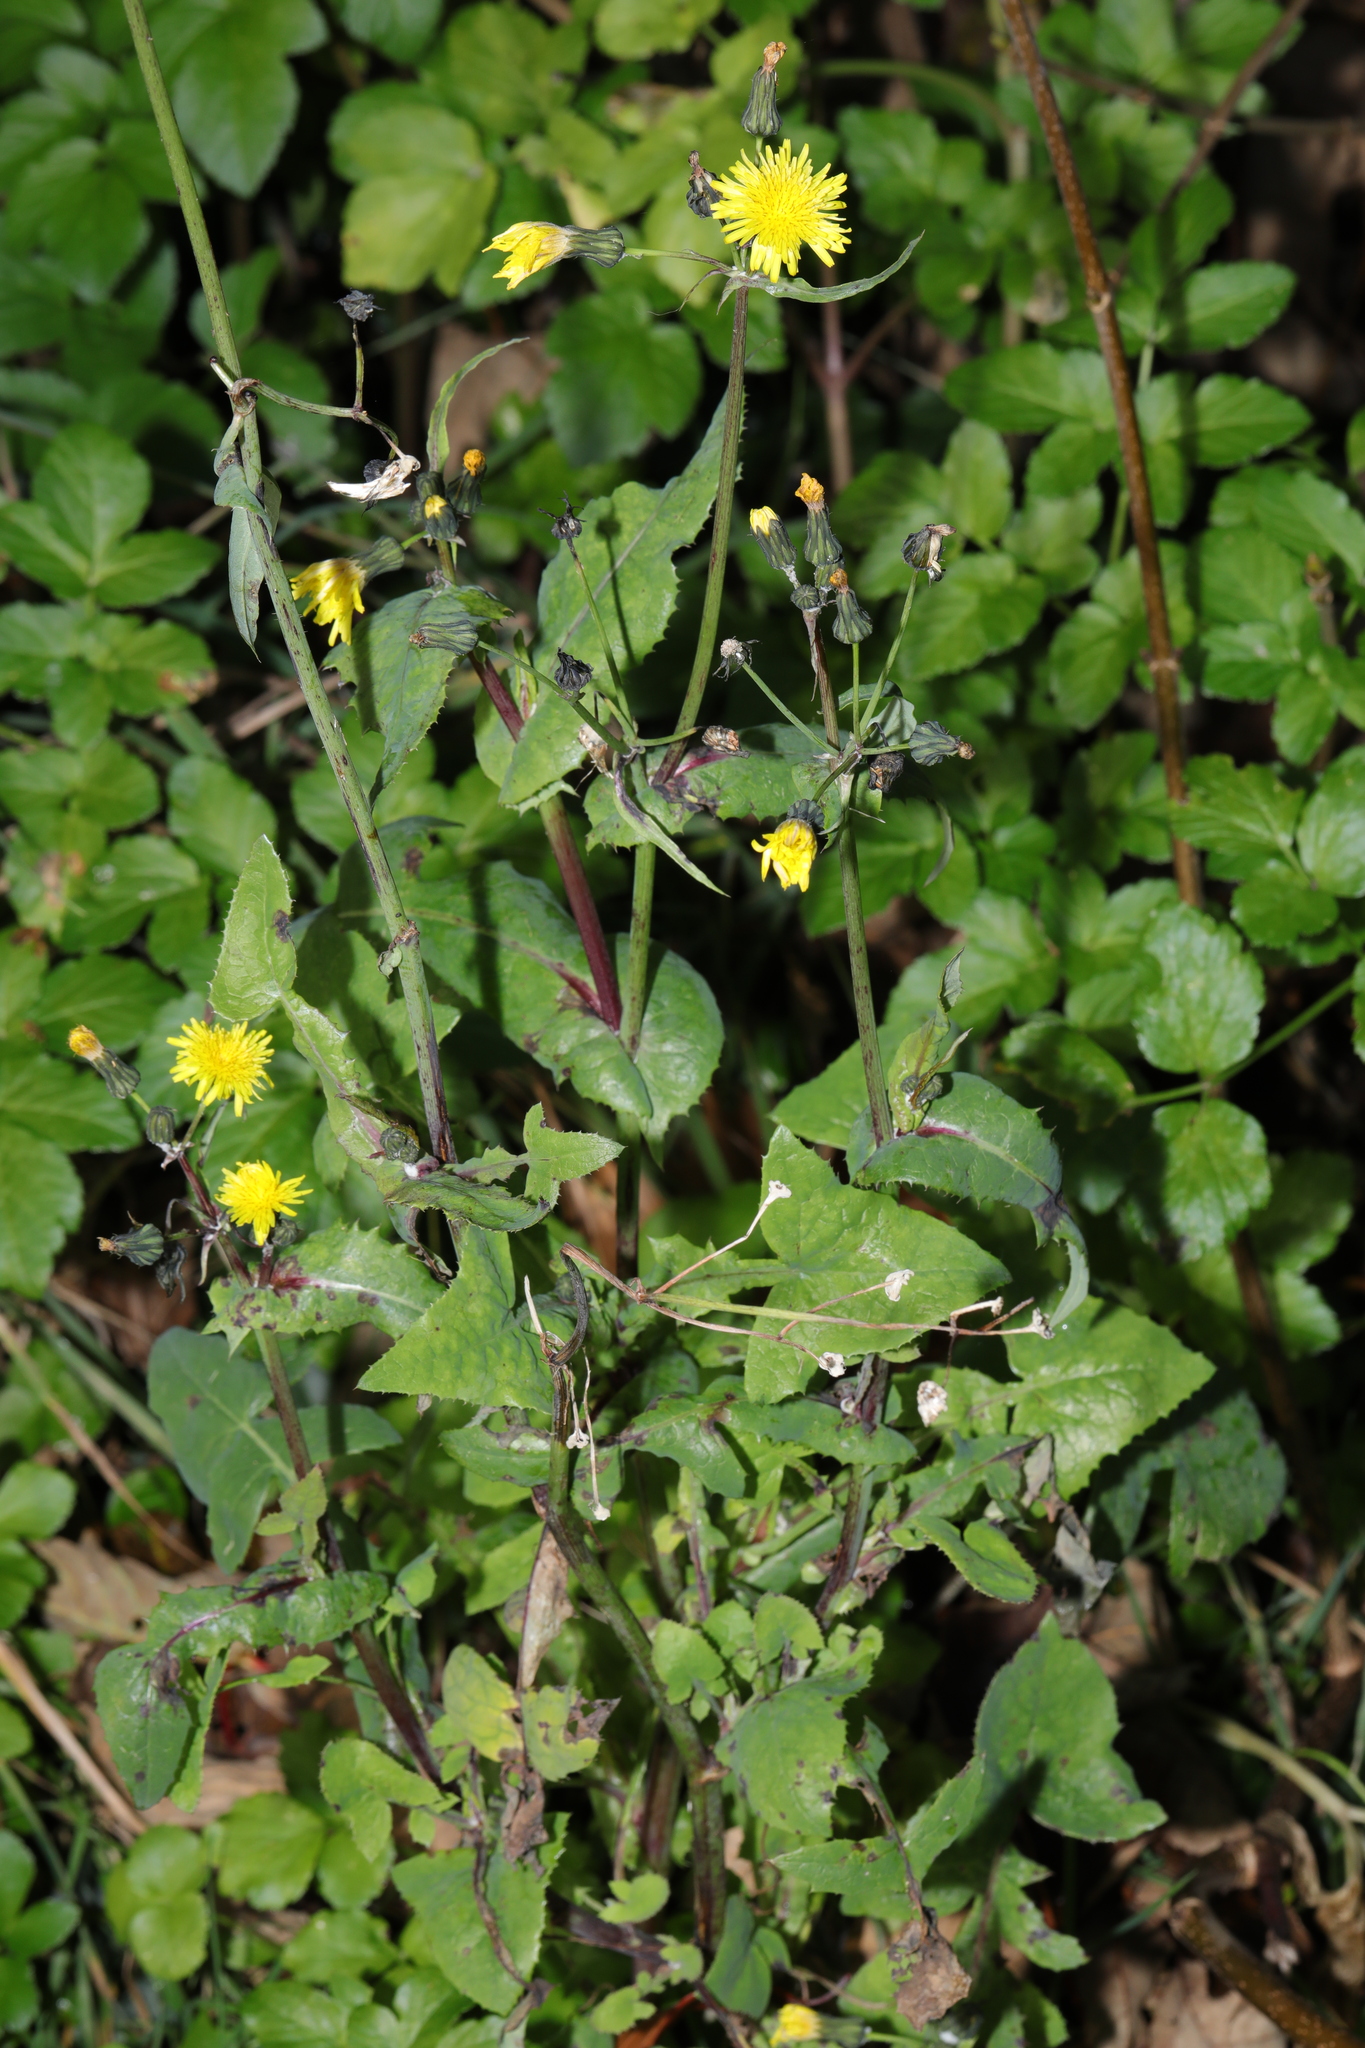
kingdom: Plantae
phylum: Tracheophyta
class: Magnoliopsida
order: Asterales
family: Asteraceae
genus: Sonchus
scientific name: Sonchus oleraceus
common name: Common sowthistle
